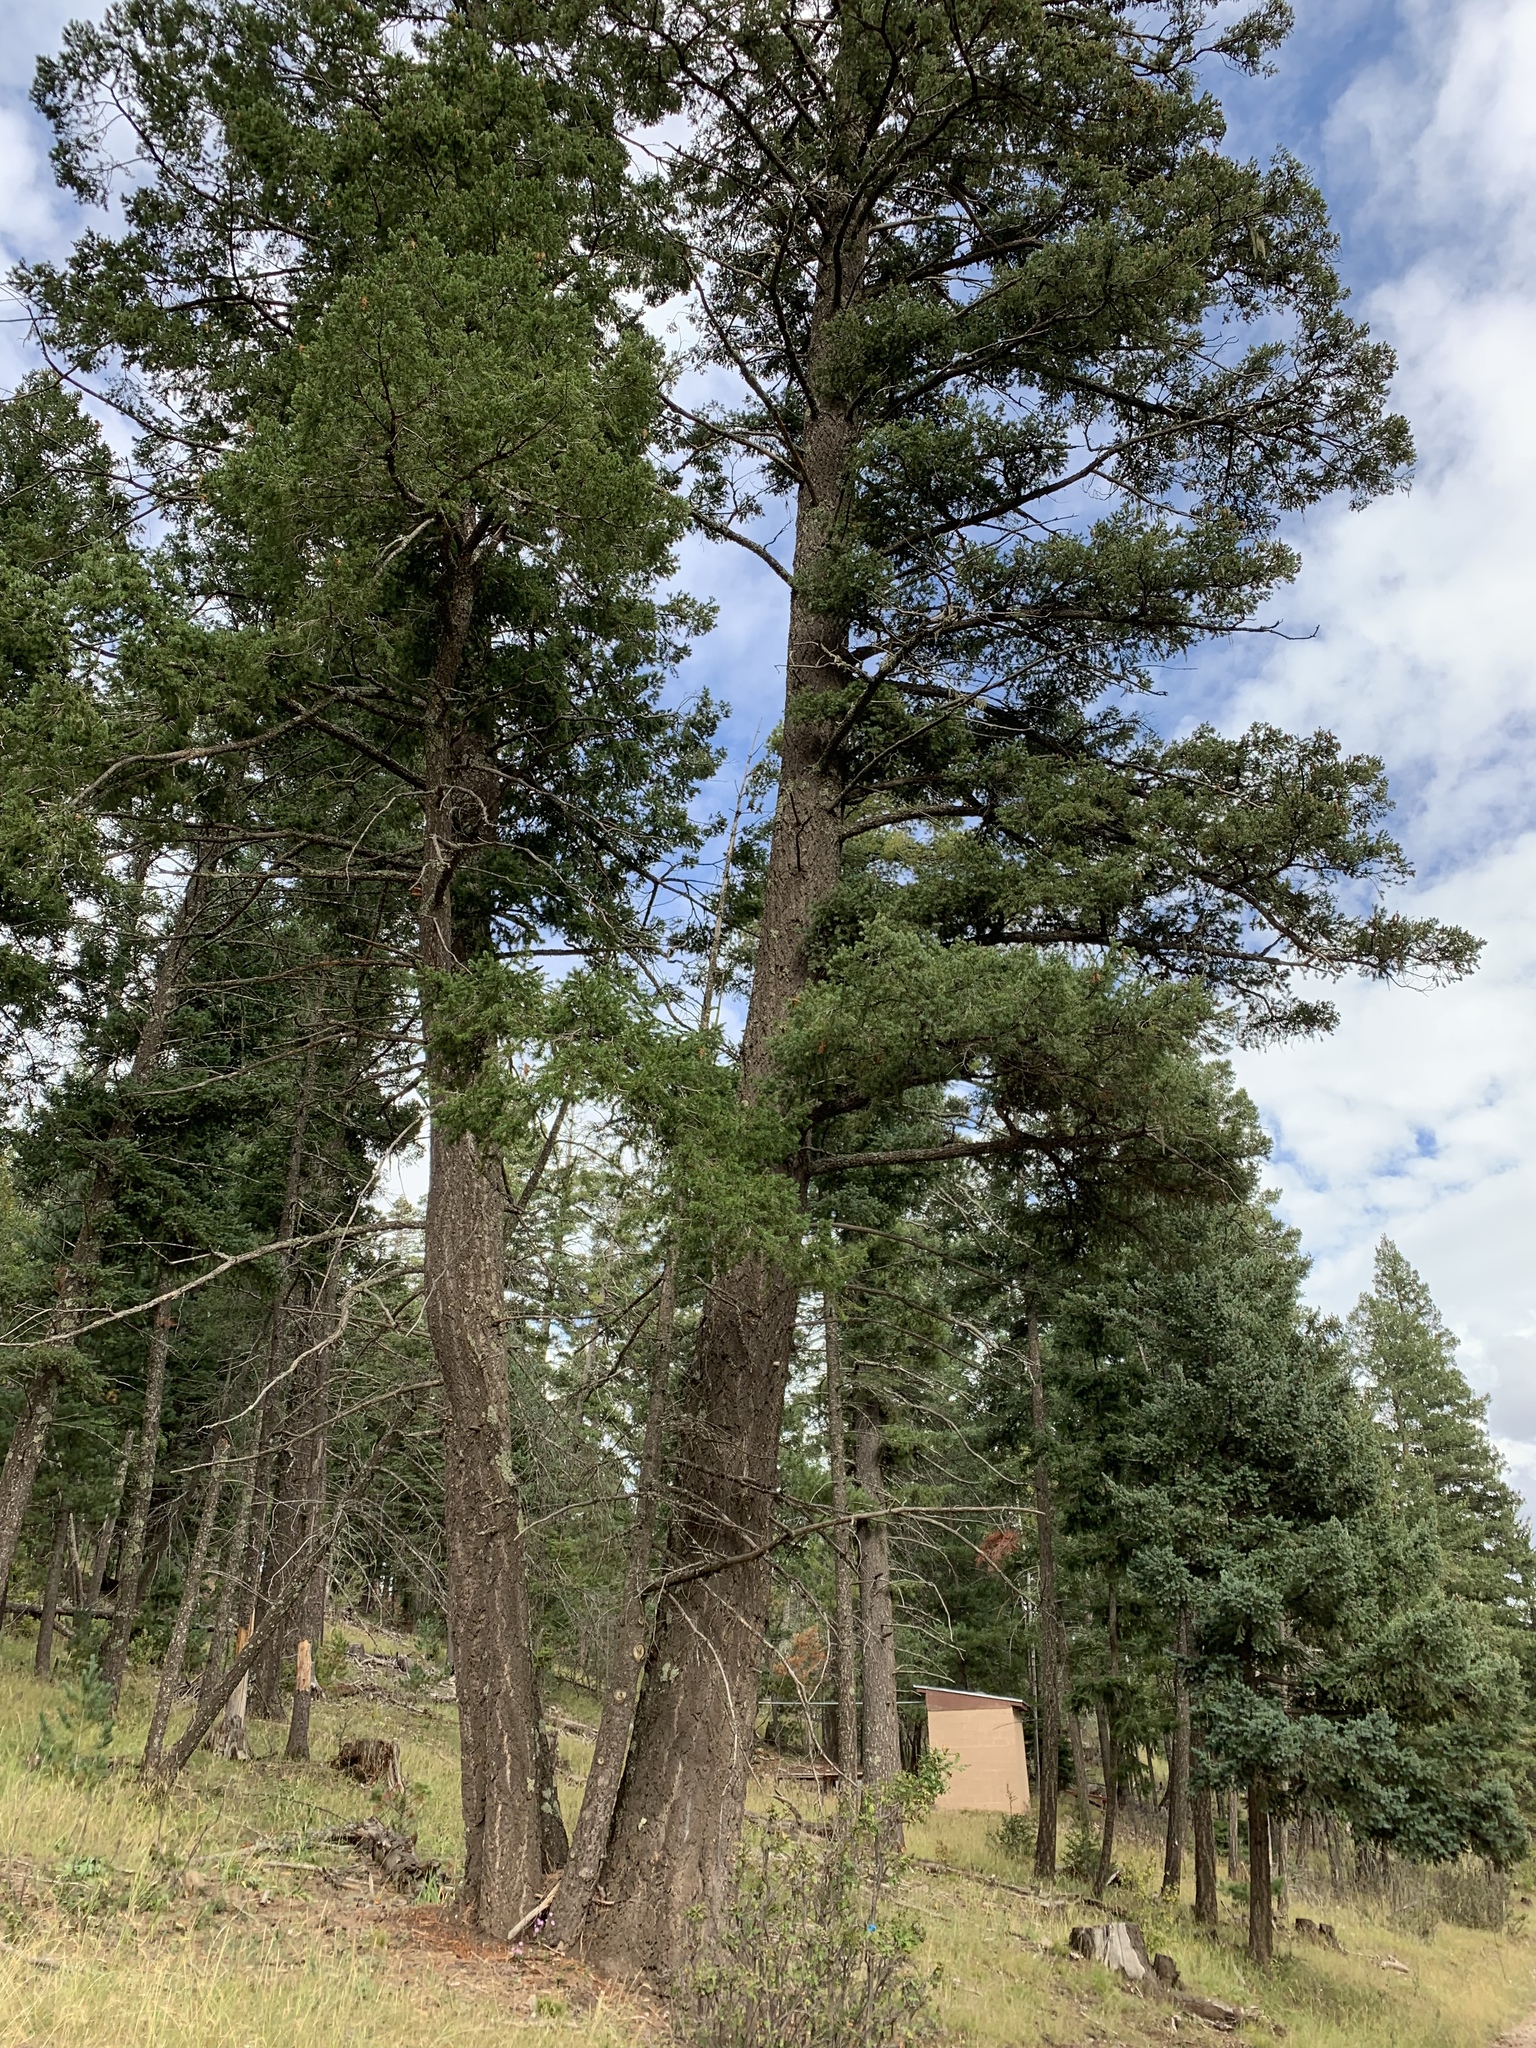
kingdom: Plantae
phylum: Tracheophyta
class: Pinopsida
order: Pinales
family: Pinaceae
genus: Pseudotsuga
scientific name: Pseudotsuga menziesii
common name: Douglas fir
